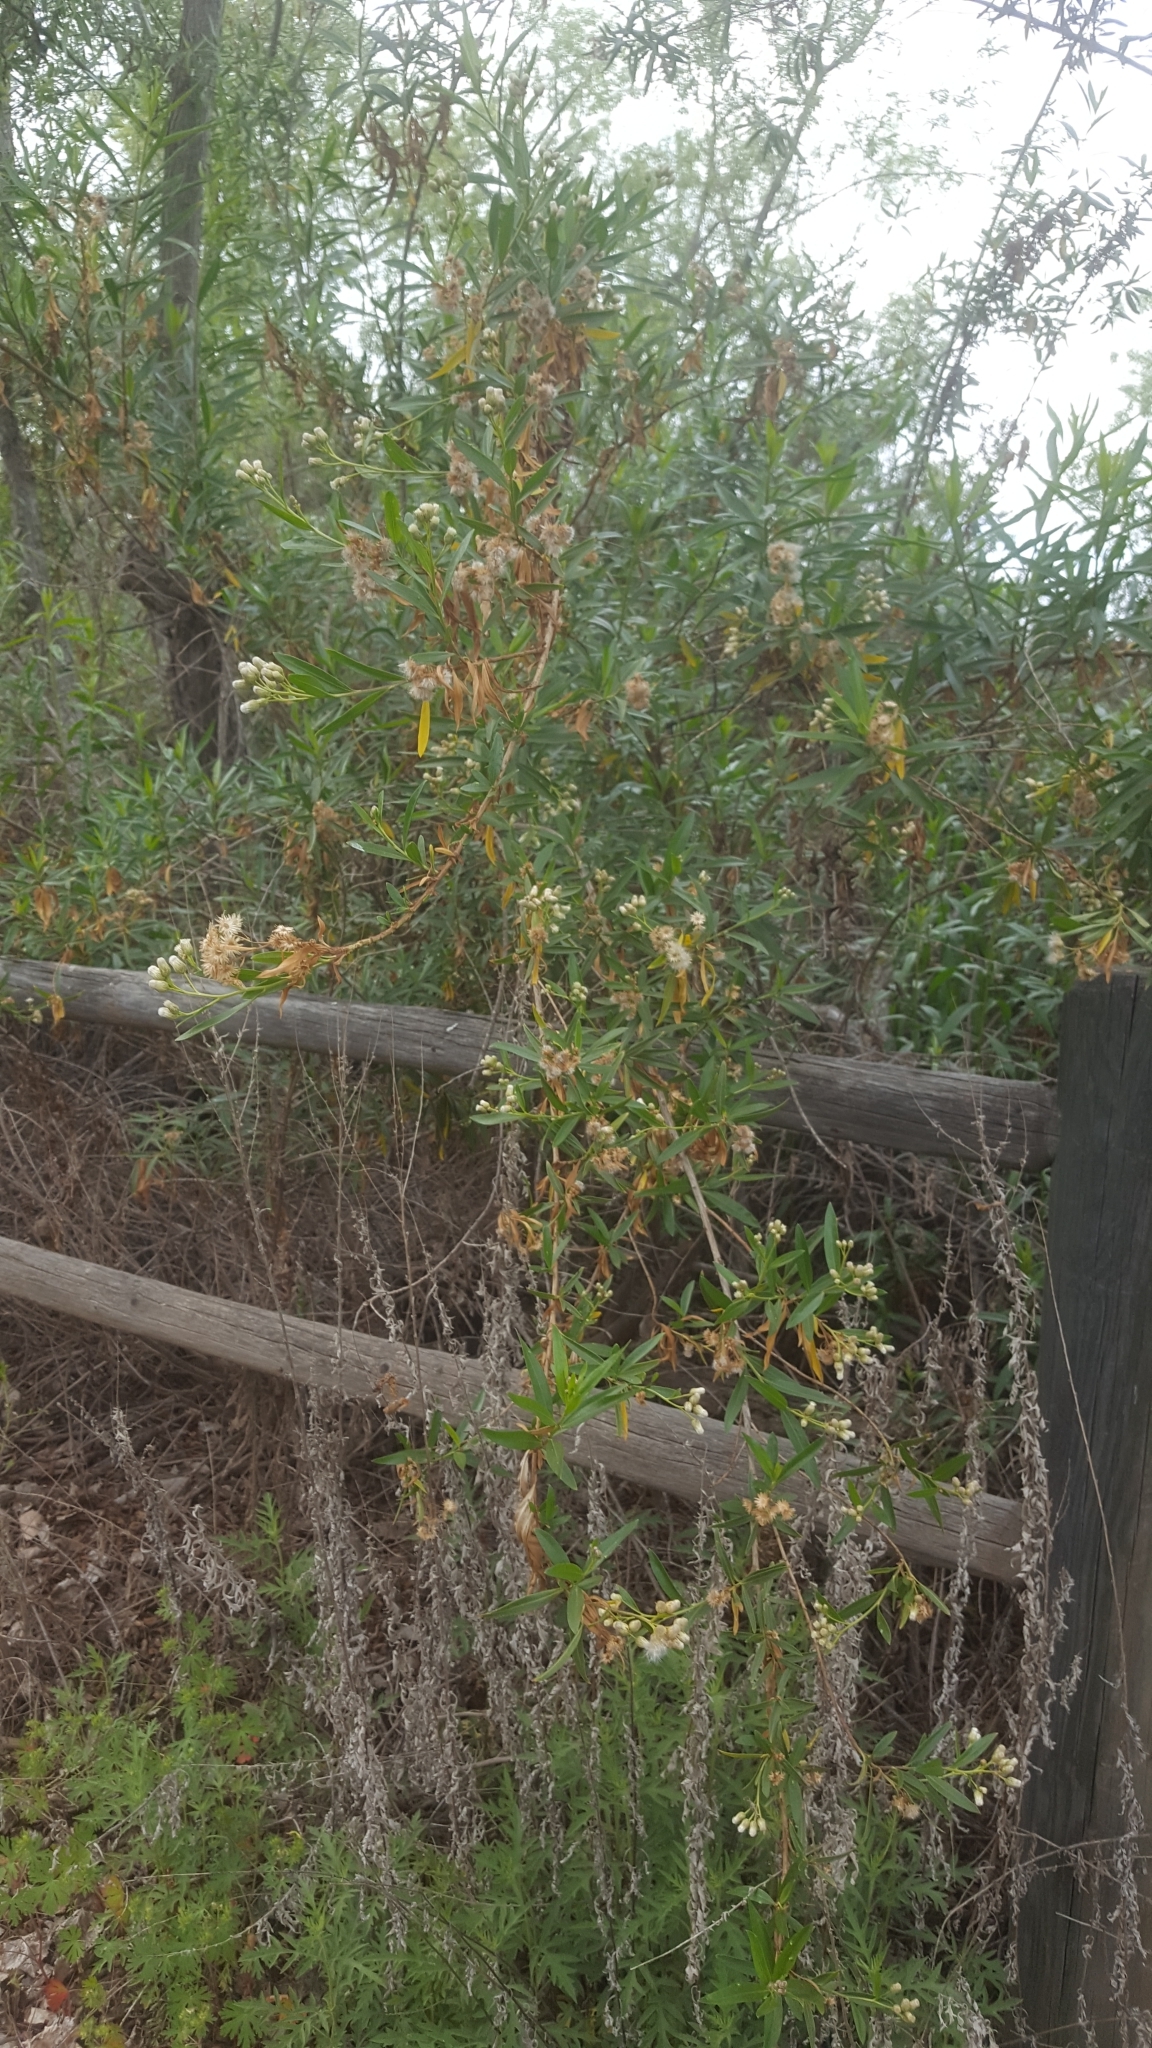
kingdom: Plantae
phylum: Tracheophyta
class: Magnoliopsida
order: Asterales
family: Asteraceae
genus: Baccharis
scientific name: Baccharis salicifolia
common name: Sticky baccharis
